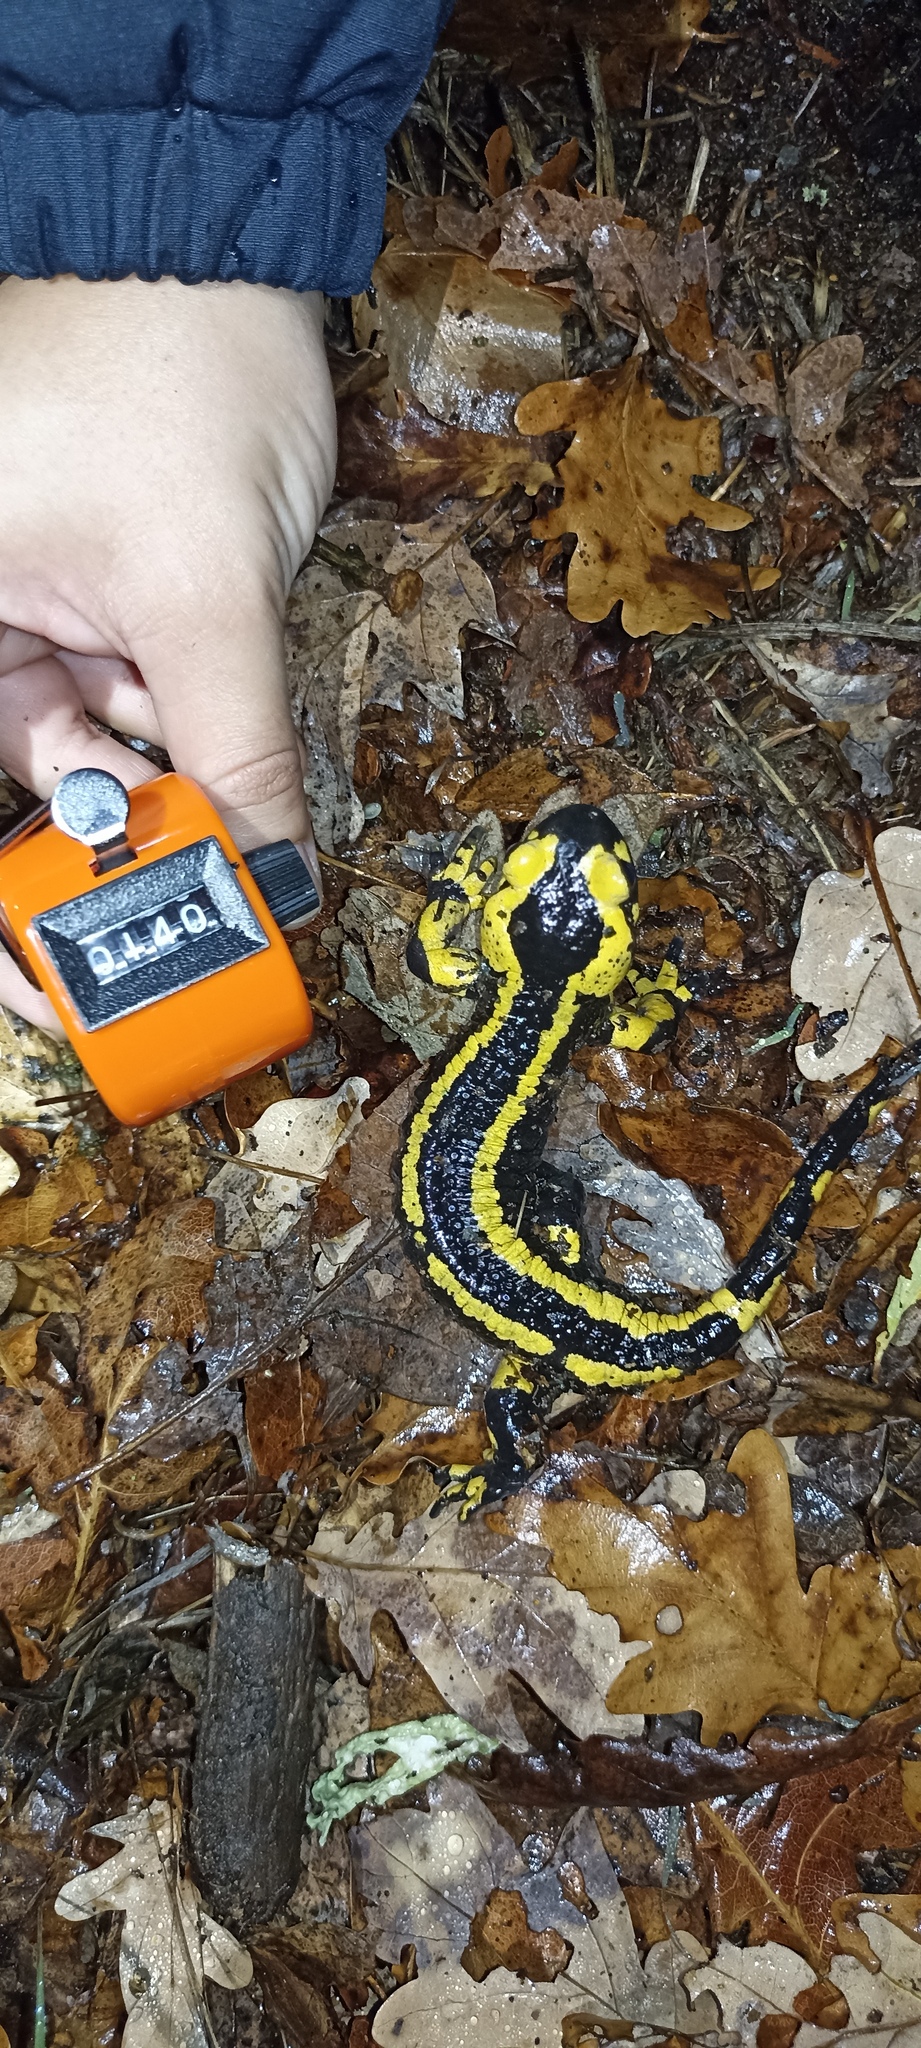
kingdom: Animalia
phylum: Chordata
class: Amphibia
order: Caudata
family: Salamandridae
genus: Salamandra
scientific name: Salamandra salamandra
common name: Fire salamander
